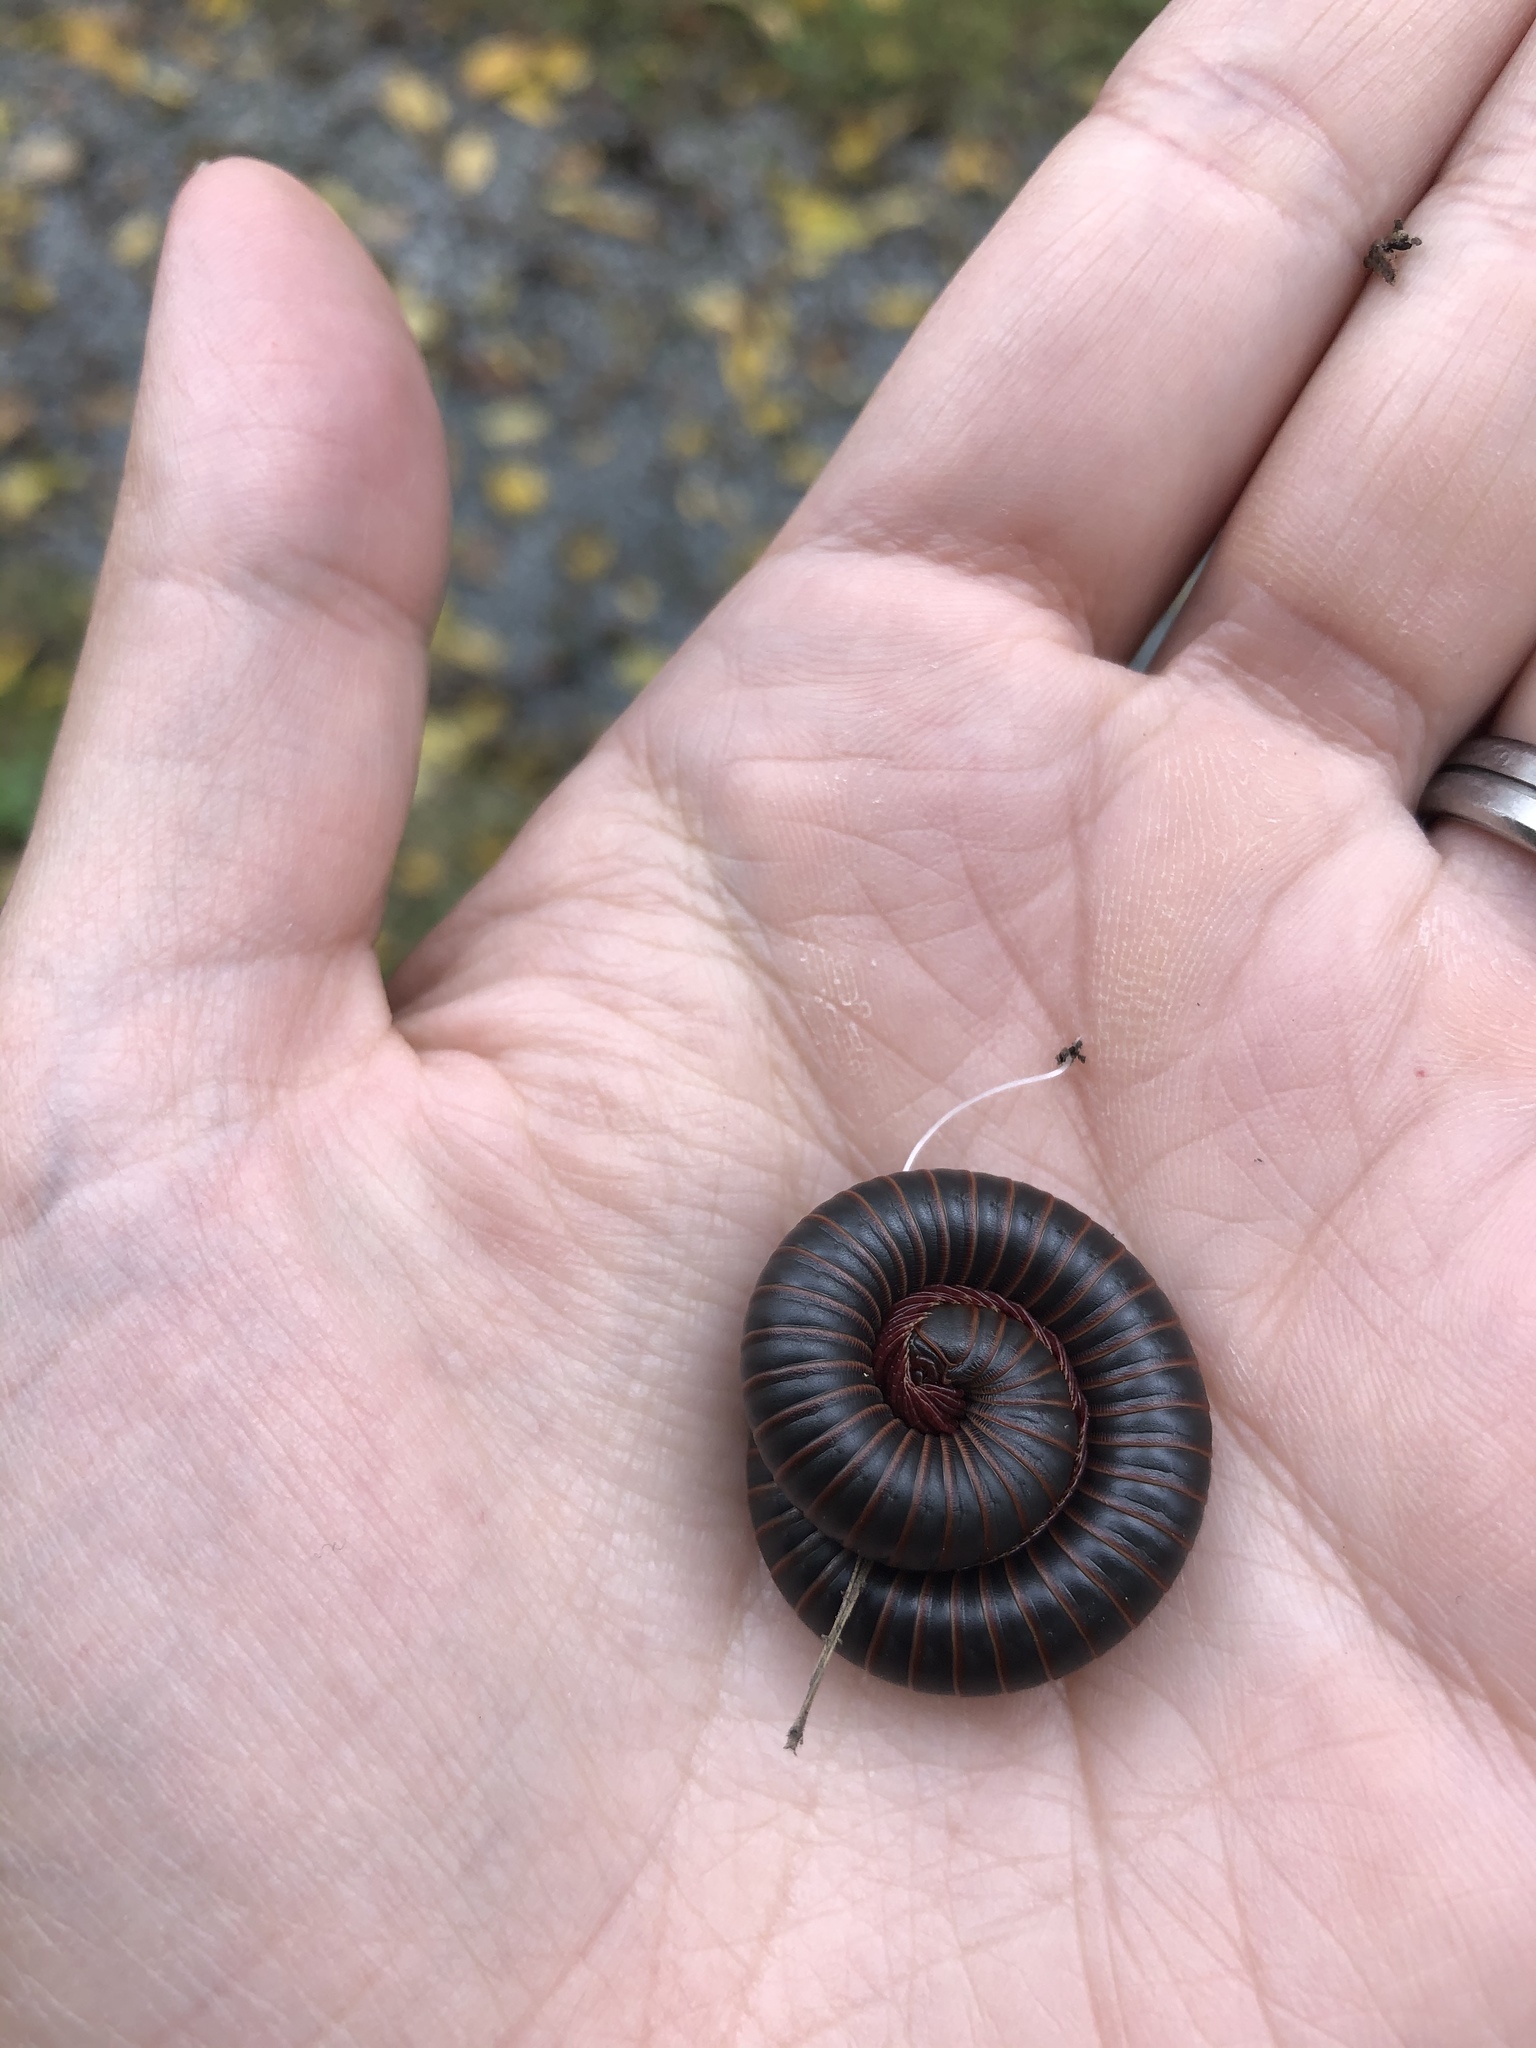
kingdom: Animalia
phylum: Arthropoda
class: Diplopoda
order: Spirobolida
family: Spirobolidae
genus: Narceus
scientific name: Narceus
